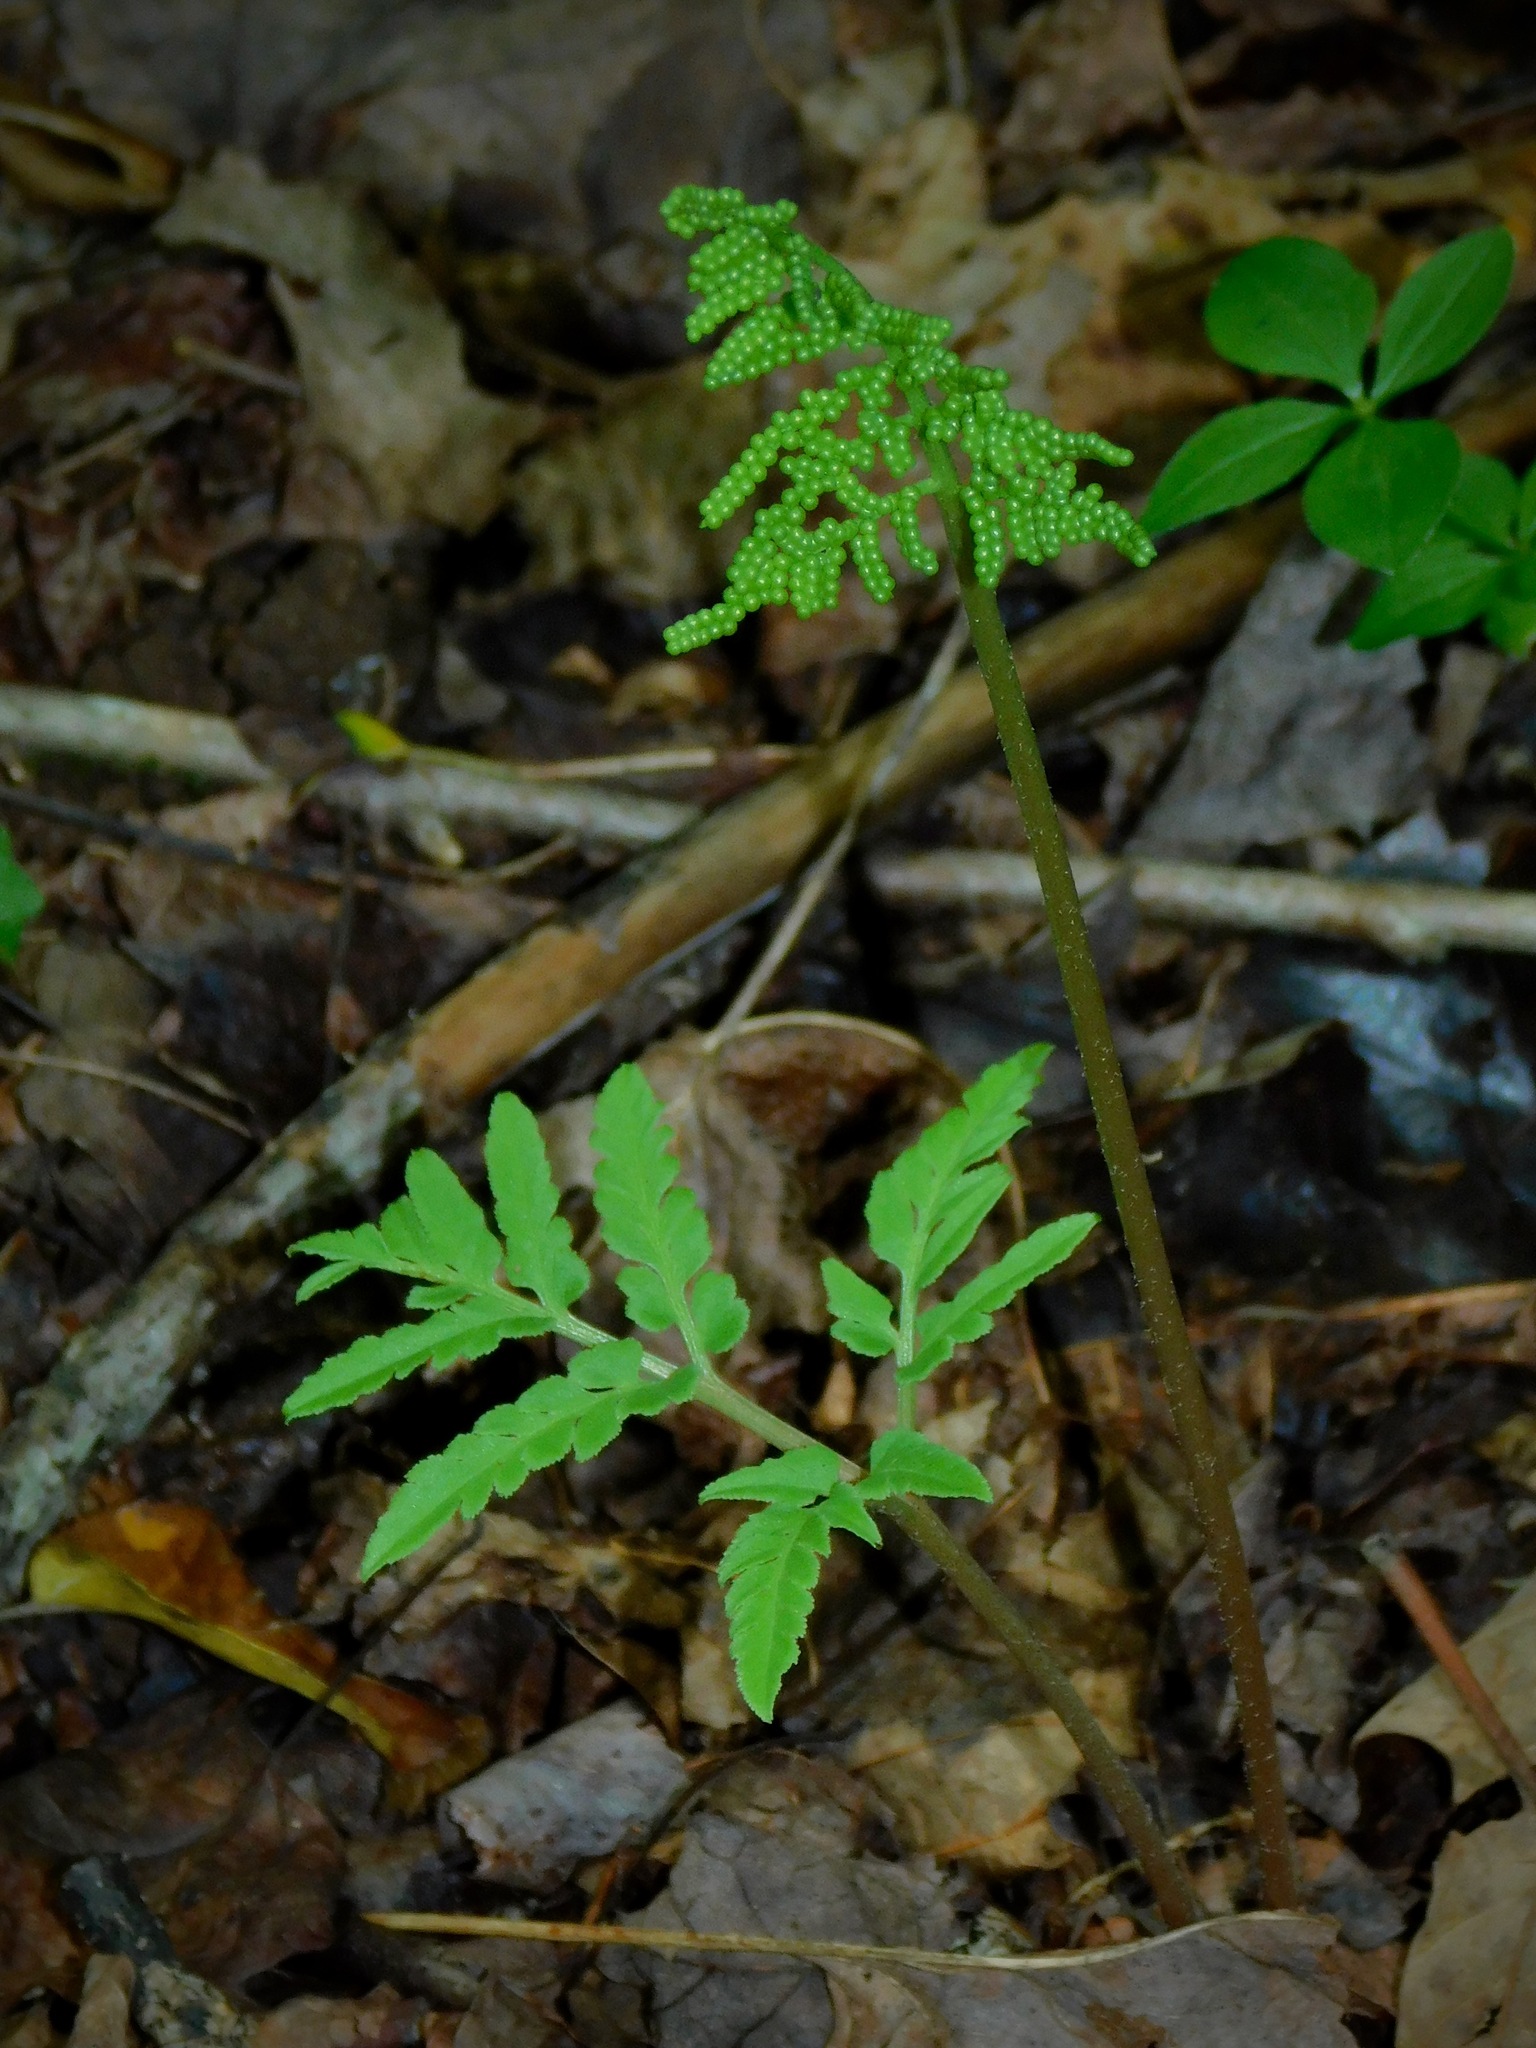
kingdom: Plantae
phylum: Tracheophyta
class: Polypodiopsida
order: Ophioglossales
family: Ophioglossaceae
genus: Sceptridium
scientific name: Sceptridium dissectum
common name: Cut-leaved grapefern
